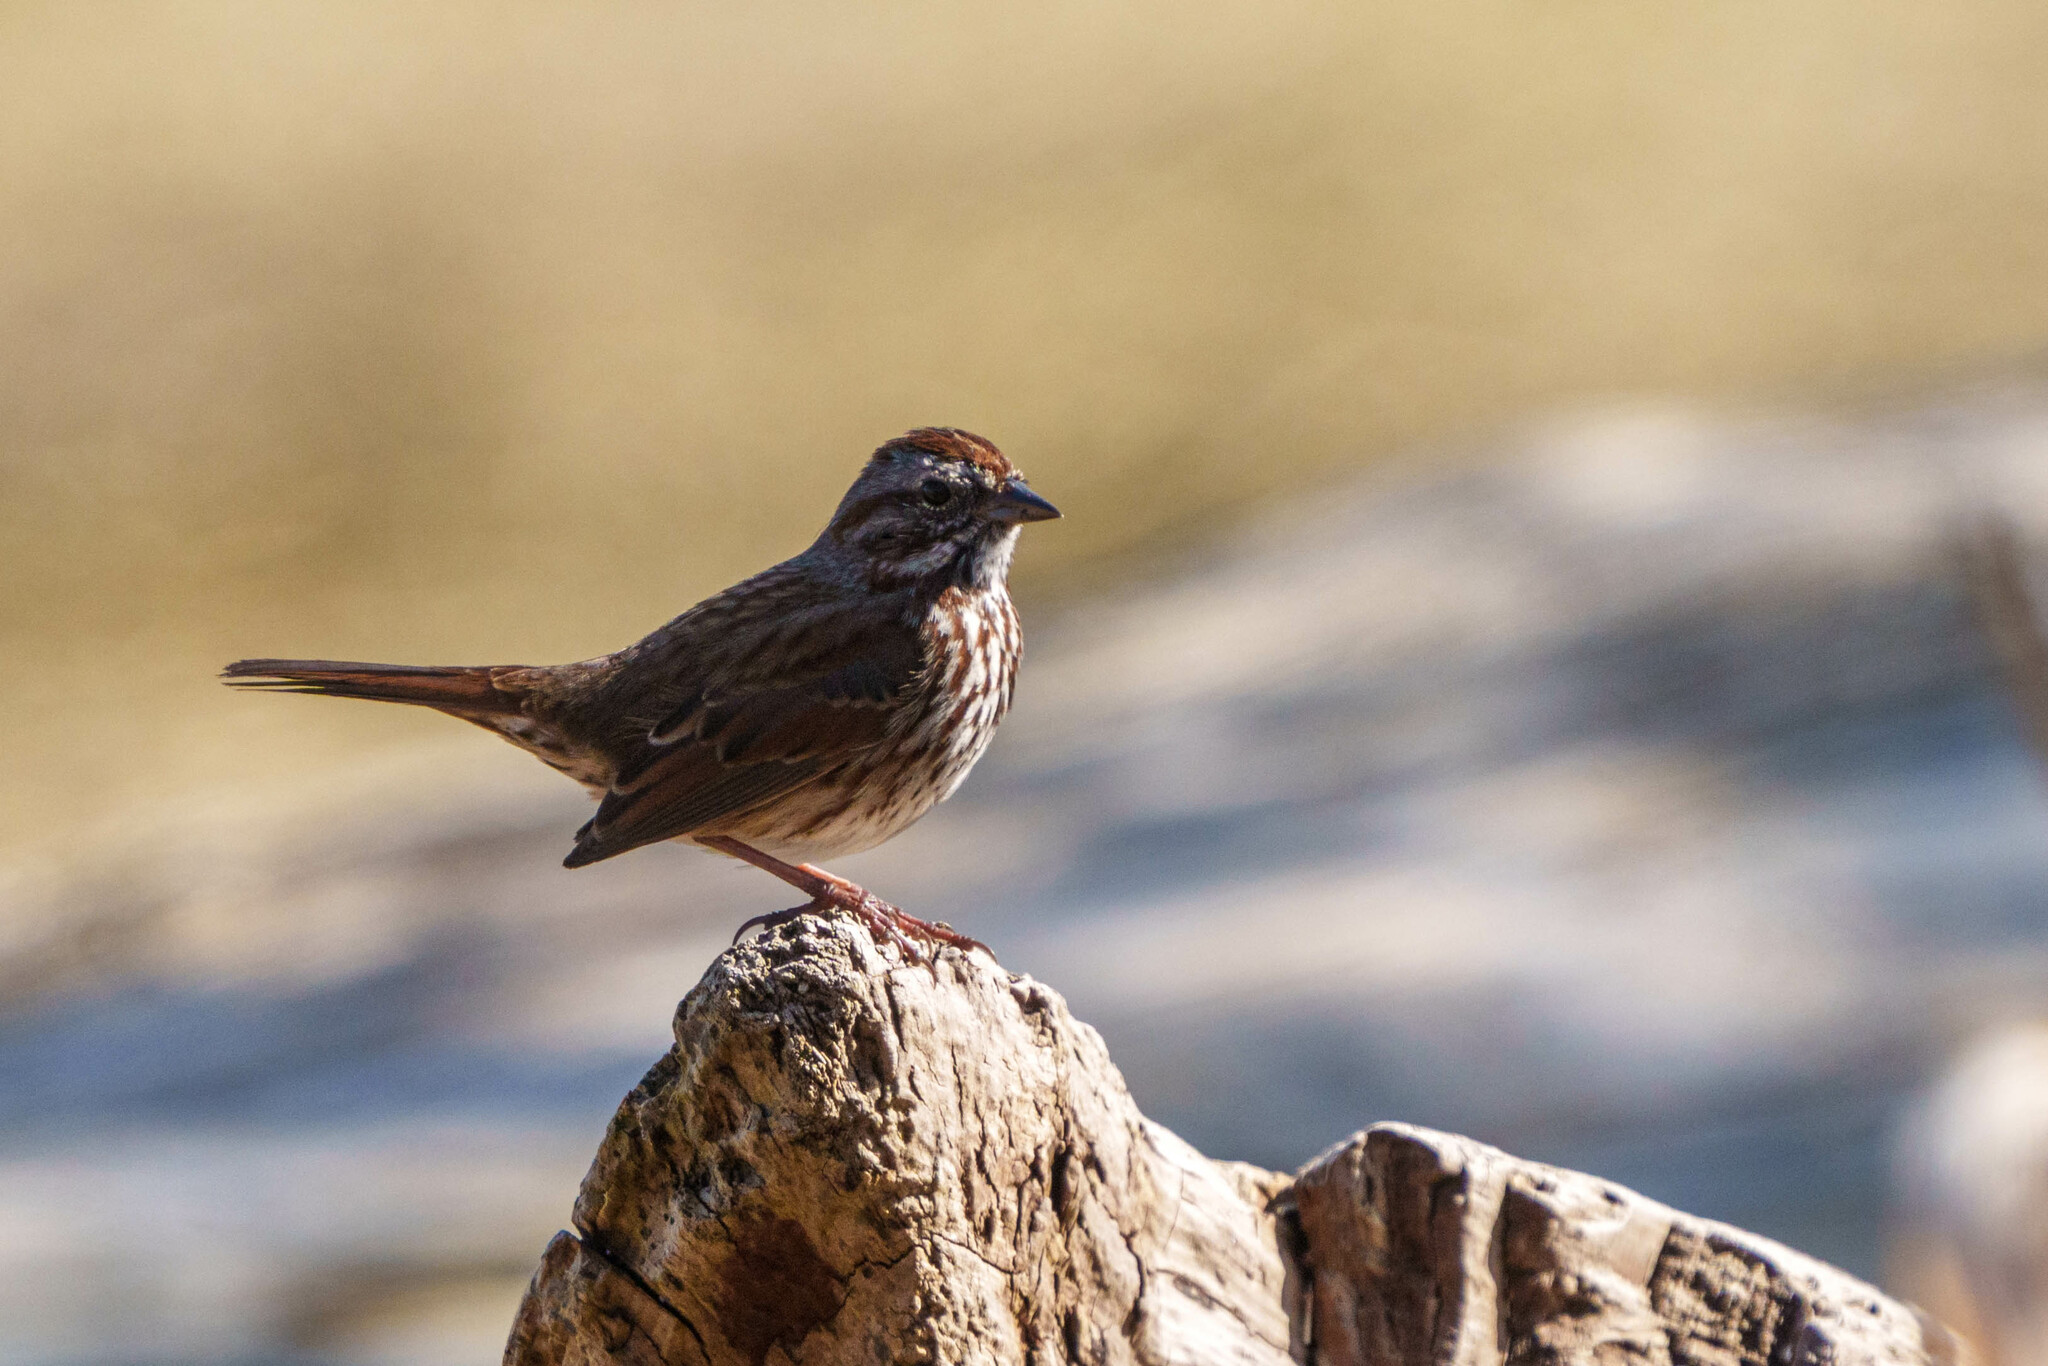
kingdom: Animalia
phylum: Chordata
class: Aves
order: Passeriformes
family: Passerellidae
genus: Melospiza
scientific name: Melospiza melodia
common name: Song sparrow
